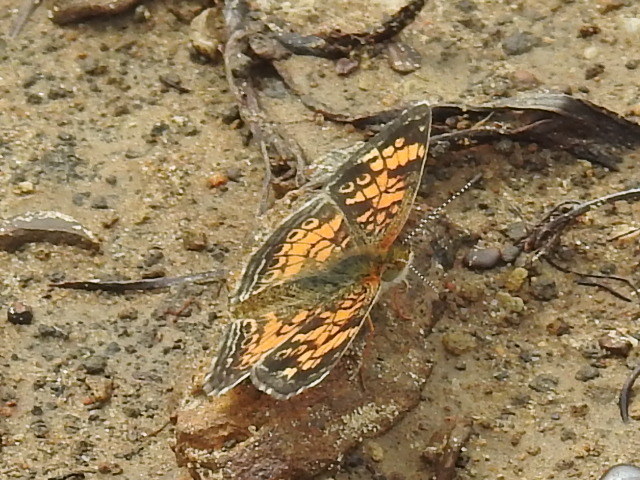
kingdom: Animalia
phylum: Arthropoda
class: Insecta
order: Lepidoptera
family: Nymphalidae
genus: Phyciodes
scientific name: Phyciodes tharos
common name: Pearl crescent
